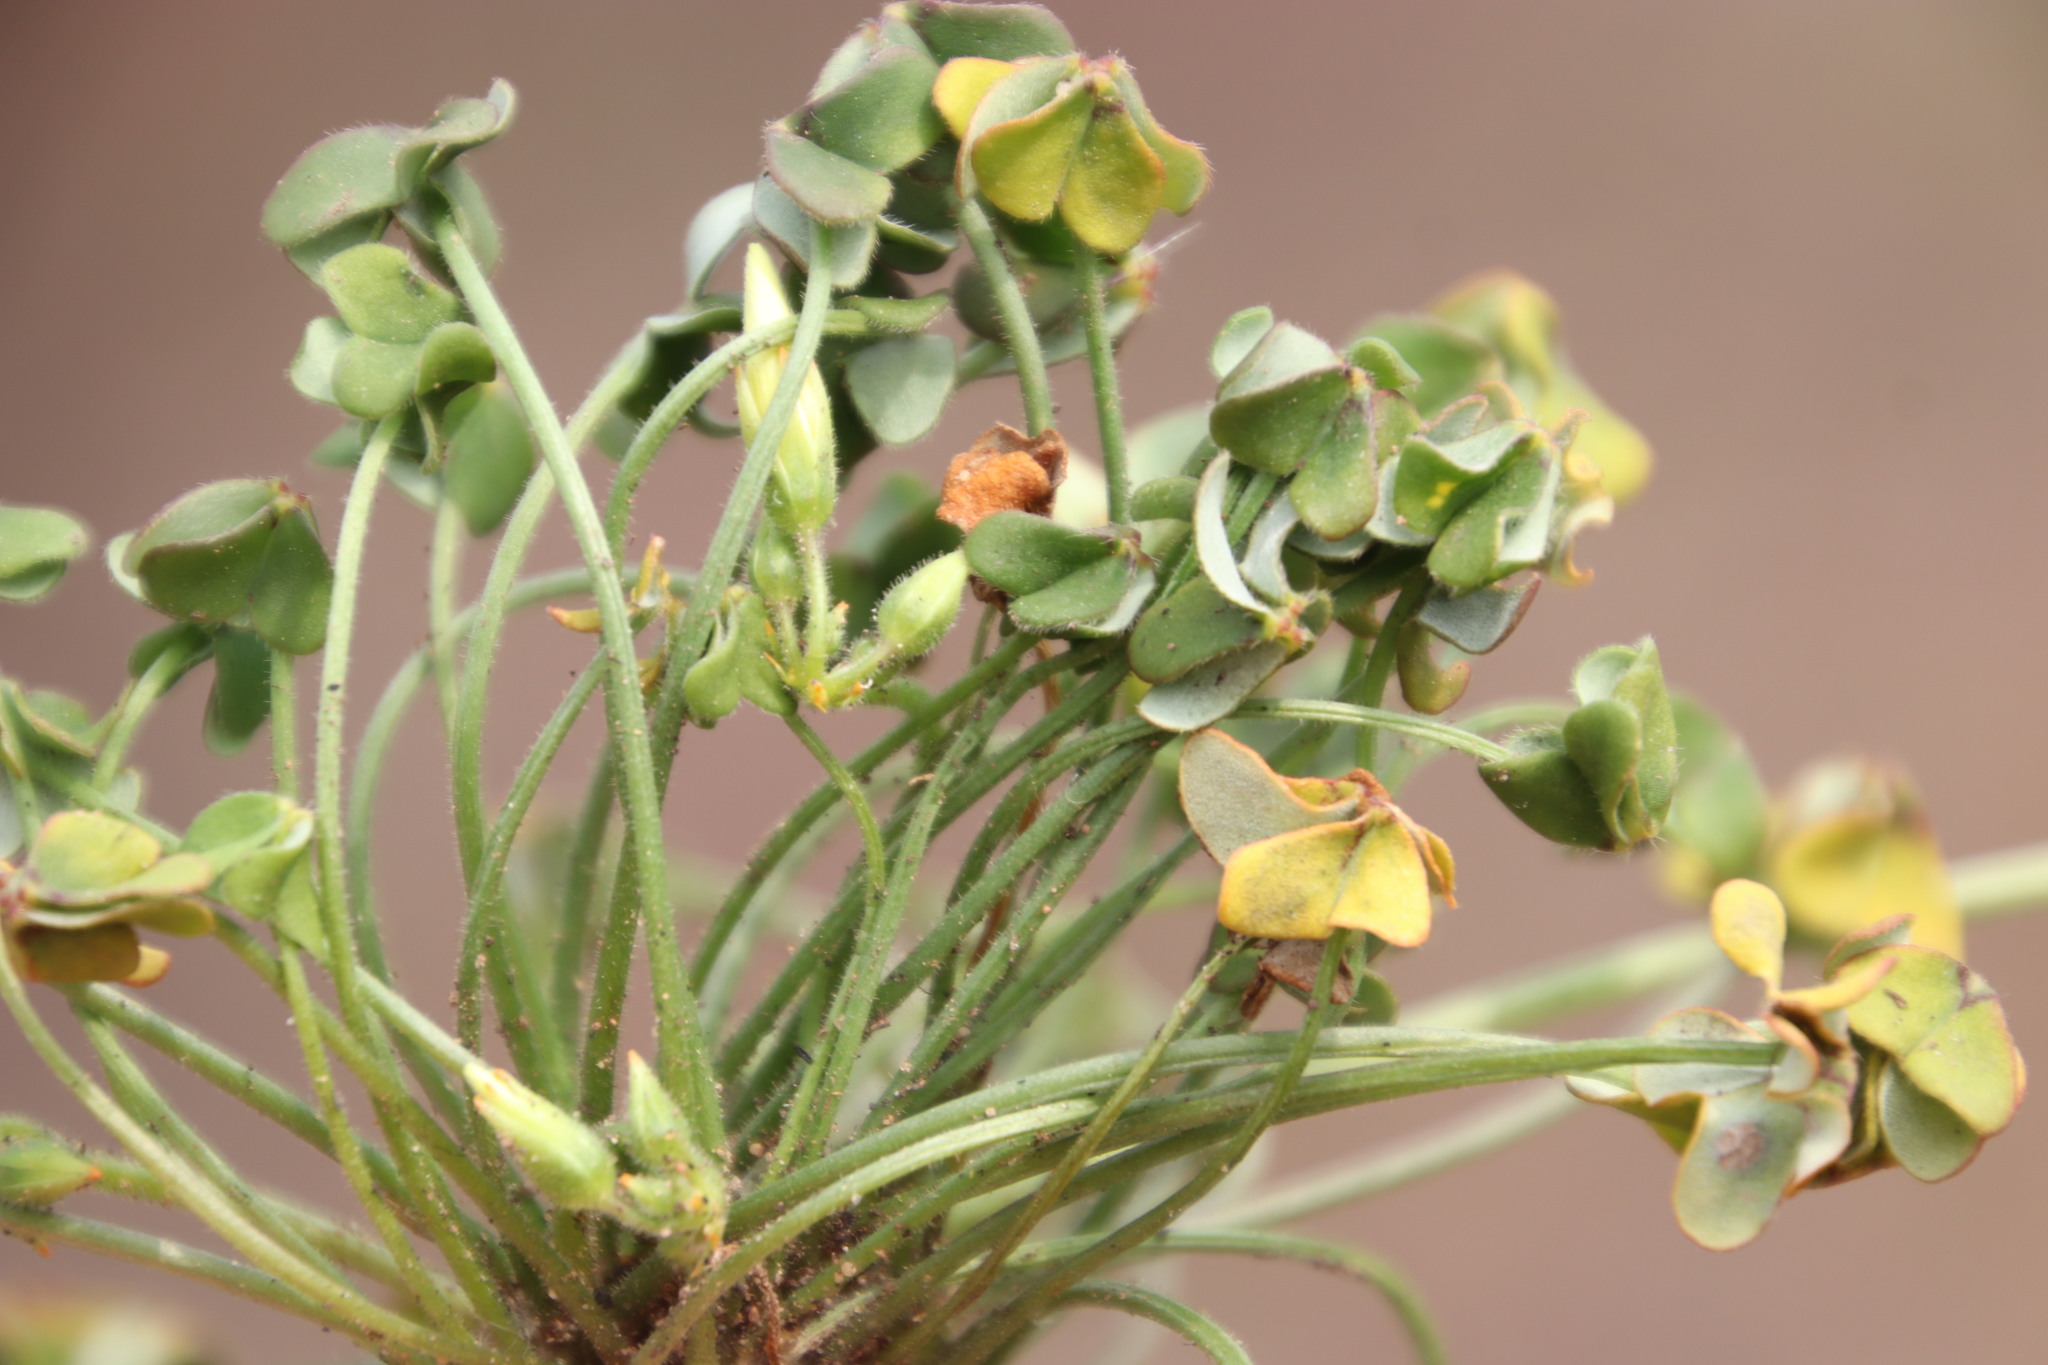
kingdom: Plantae
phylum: Tracheophyta
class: Magnoliopsida
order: Oxalidales
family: Oxalidaceae
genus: Oxalis
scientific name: Oxalis pes-caprae
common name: Bermuda-buttercup
